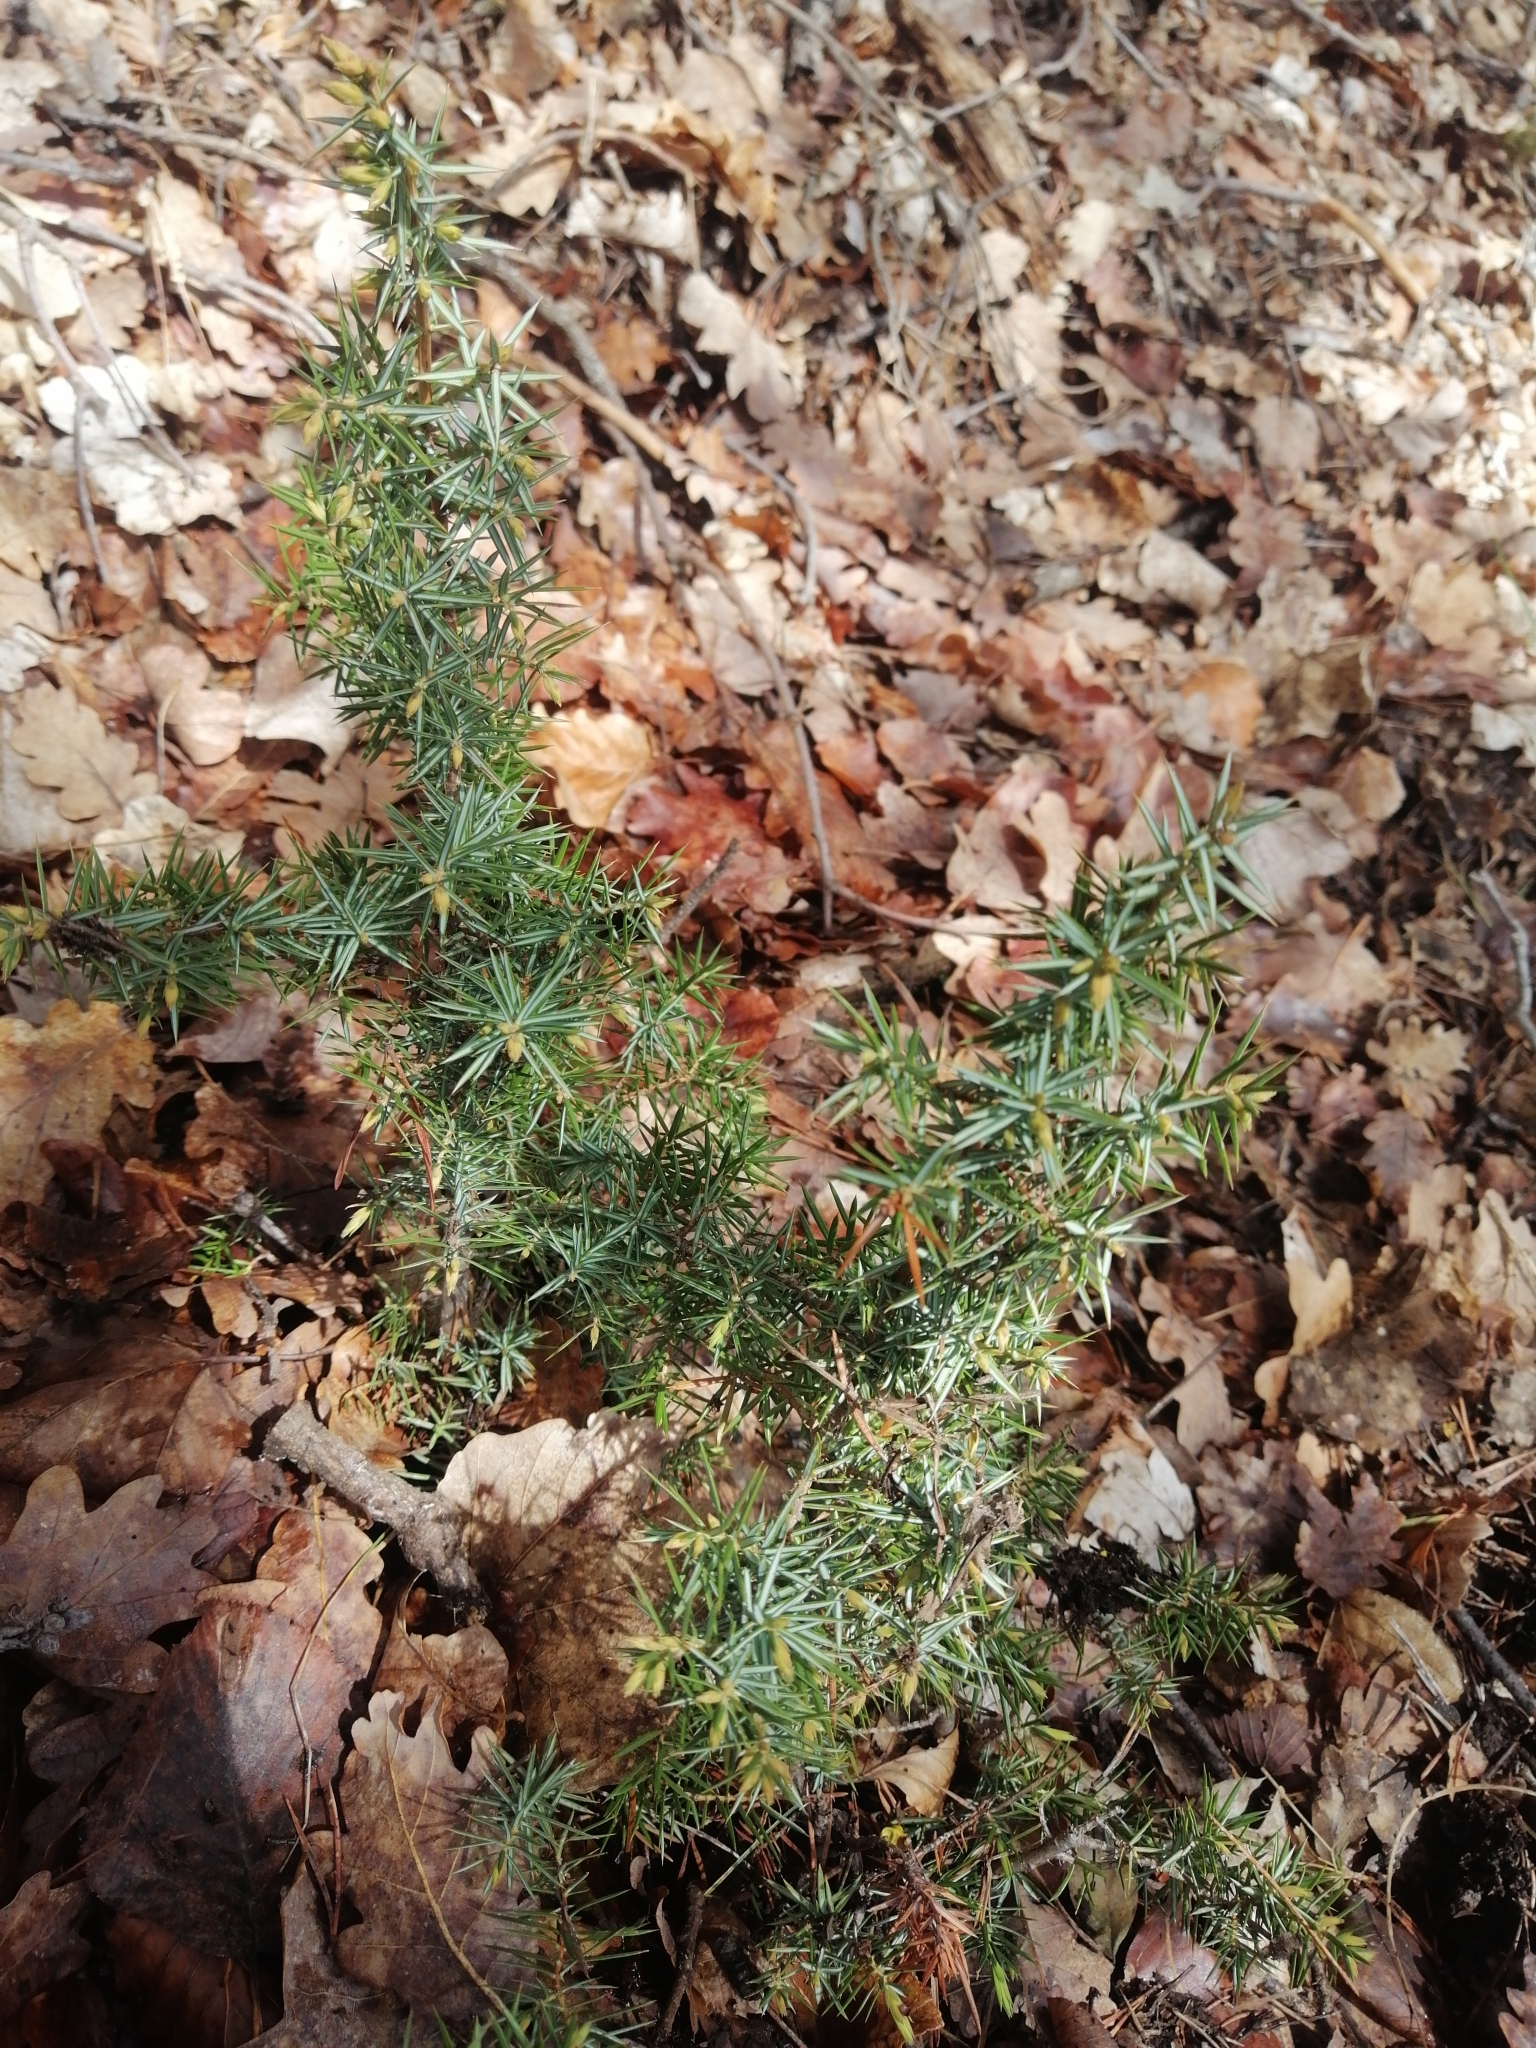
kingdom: Plantae
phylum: Tracheophyta
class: Pinopsida
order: Pinales
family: Cupressaceae
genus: Juniperus
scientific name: Juniperus communis
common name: Common juniper
